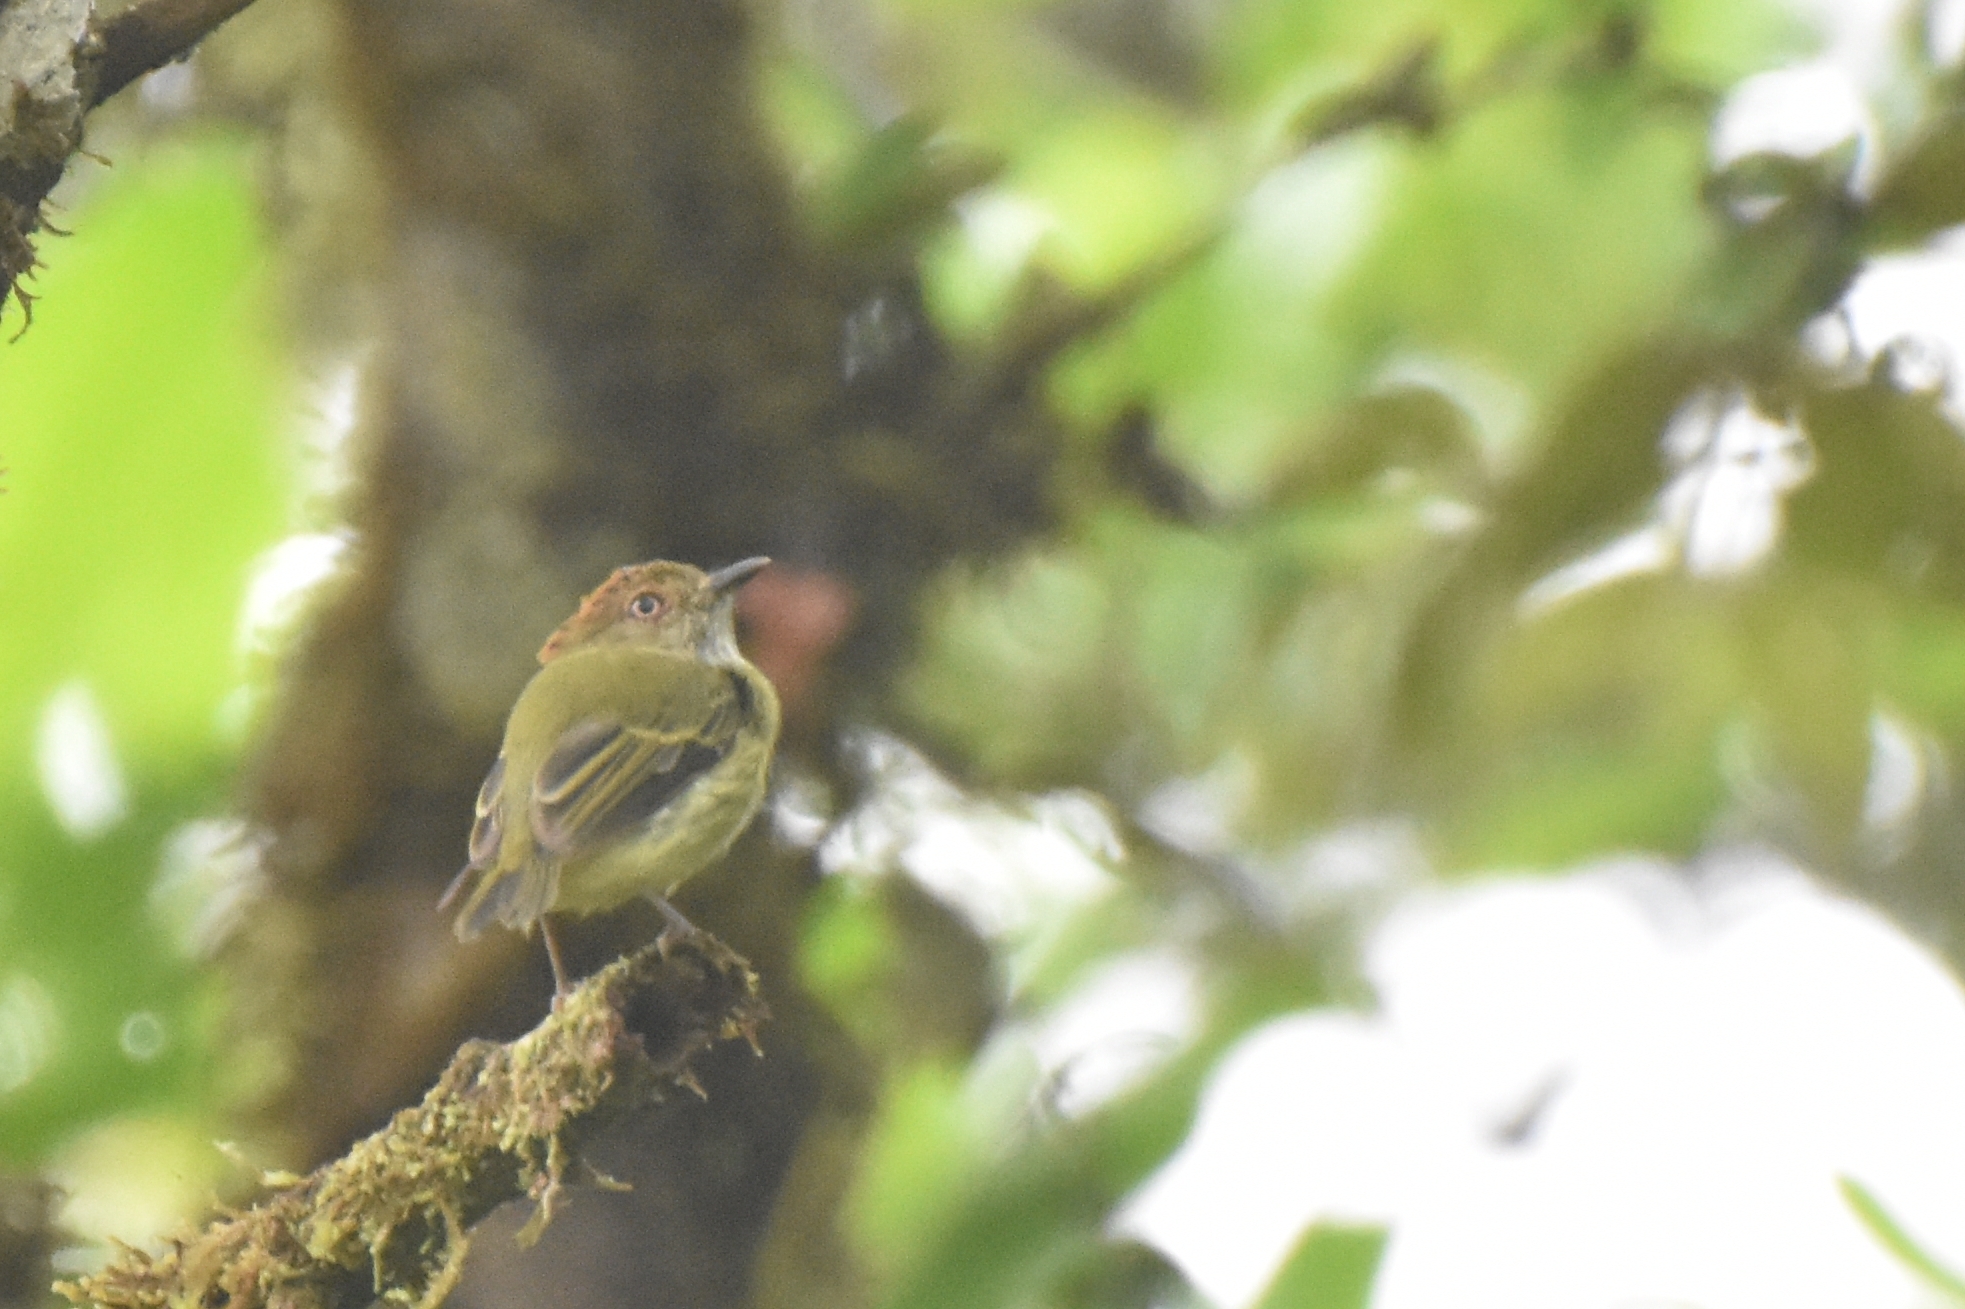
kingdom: Animalia
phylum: Chordata
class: Aves
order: Passeriformes
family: Tyrannidae
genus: Lophotriccus
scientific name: Lophotriccus pileatus
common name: Scale-crested pygmy-tyrant
